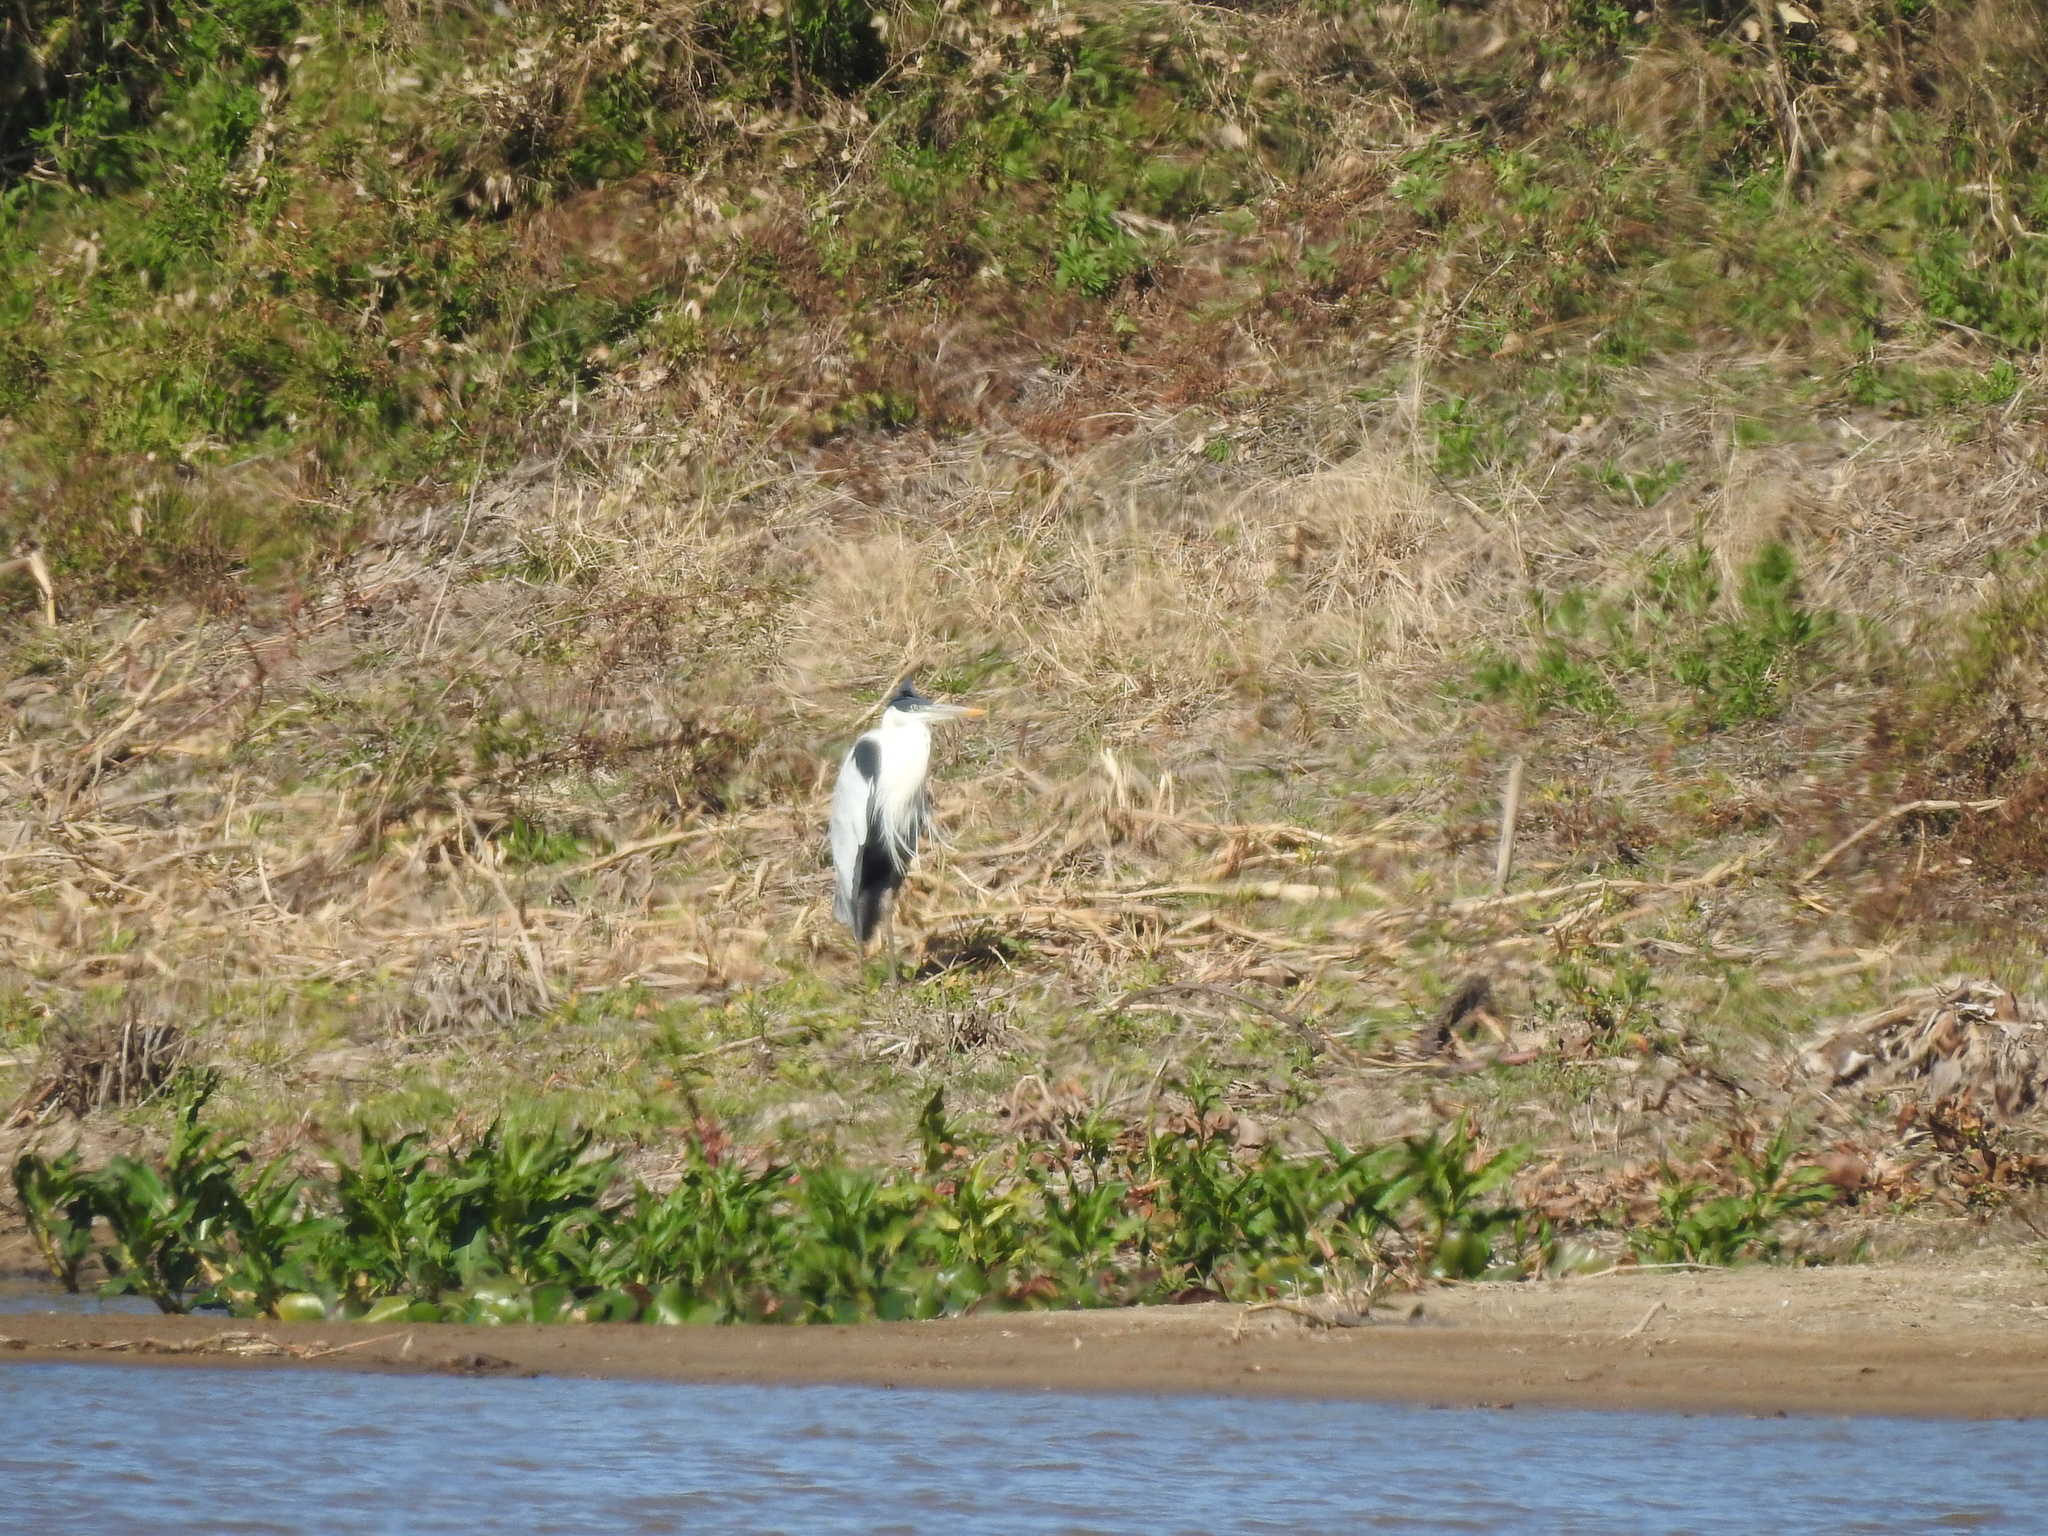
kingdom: Animalia
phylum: Chordata
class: Aves
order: Pelecaniformes
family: Ardeidae
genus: Ardea
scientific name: Ardea cocoi
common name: Cocoi heron
